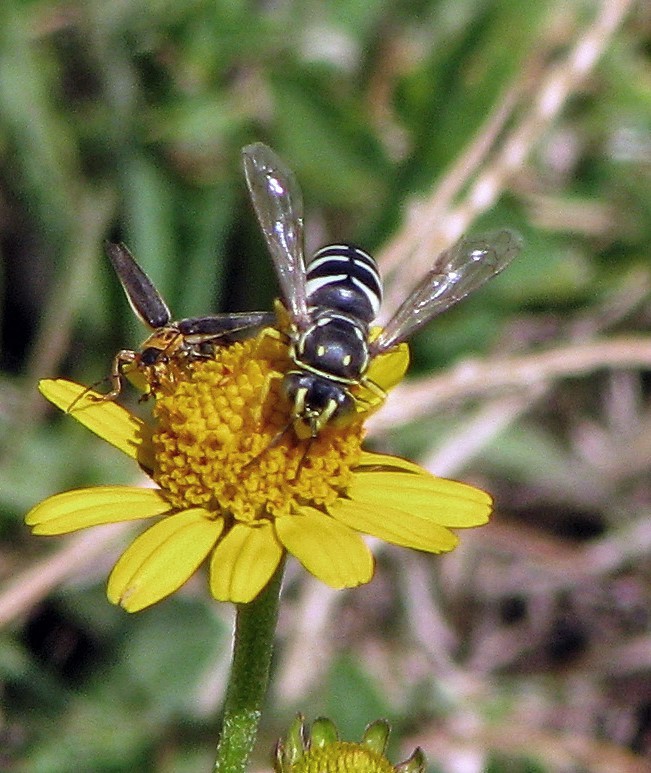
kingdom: Animalia
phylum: Arthropoda
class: Insecta
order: Hymenoptera
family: Crabronidae
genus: Bicyrtes
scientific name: Bicyrtes discisus
